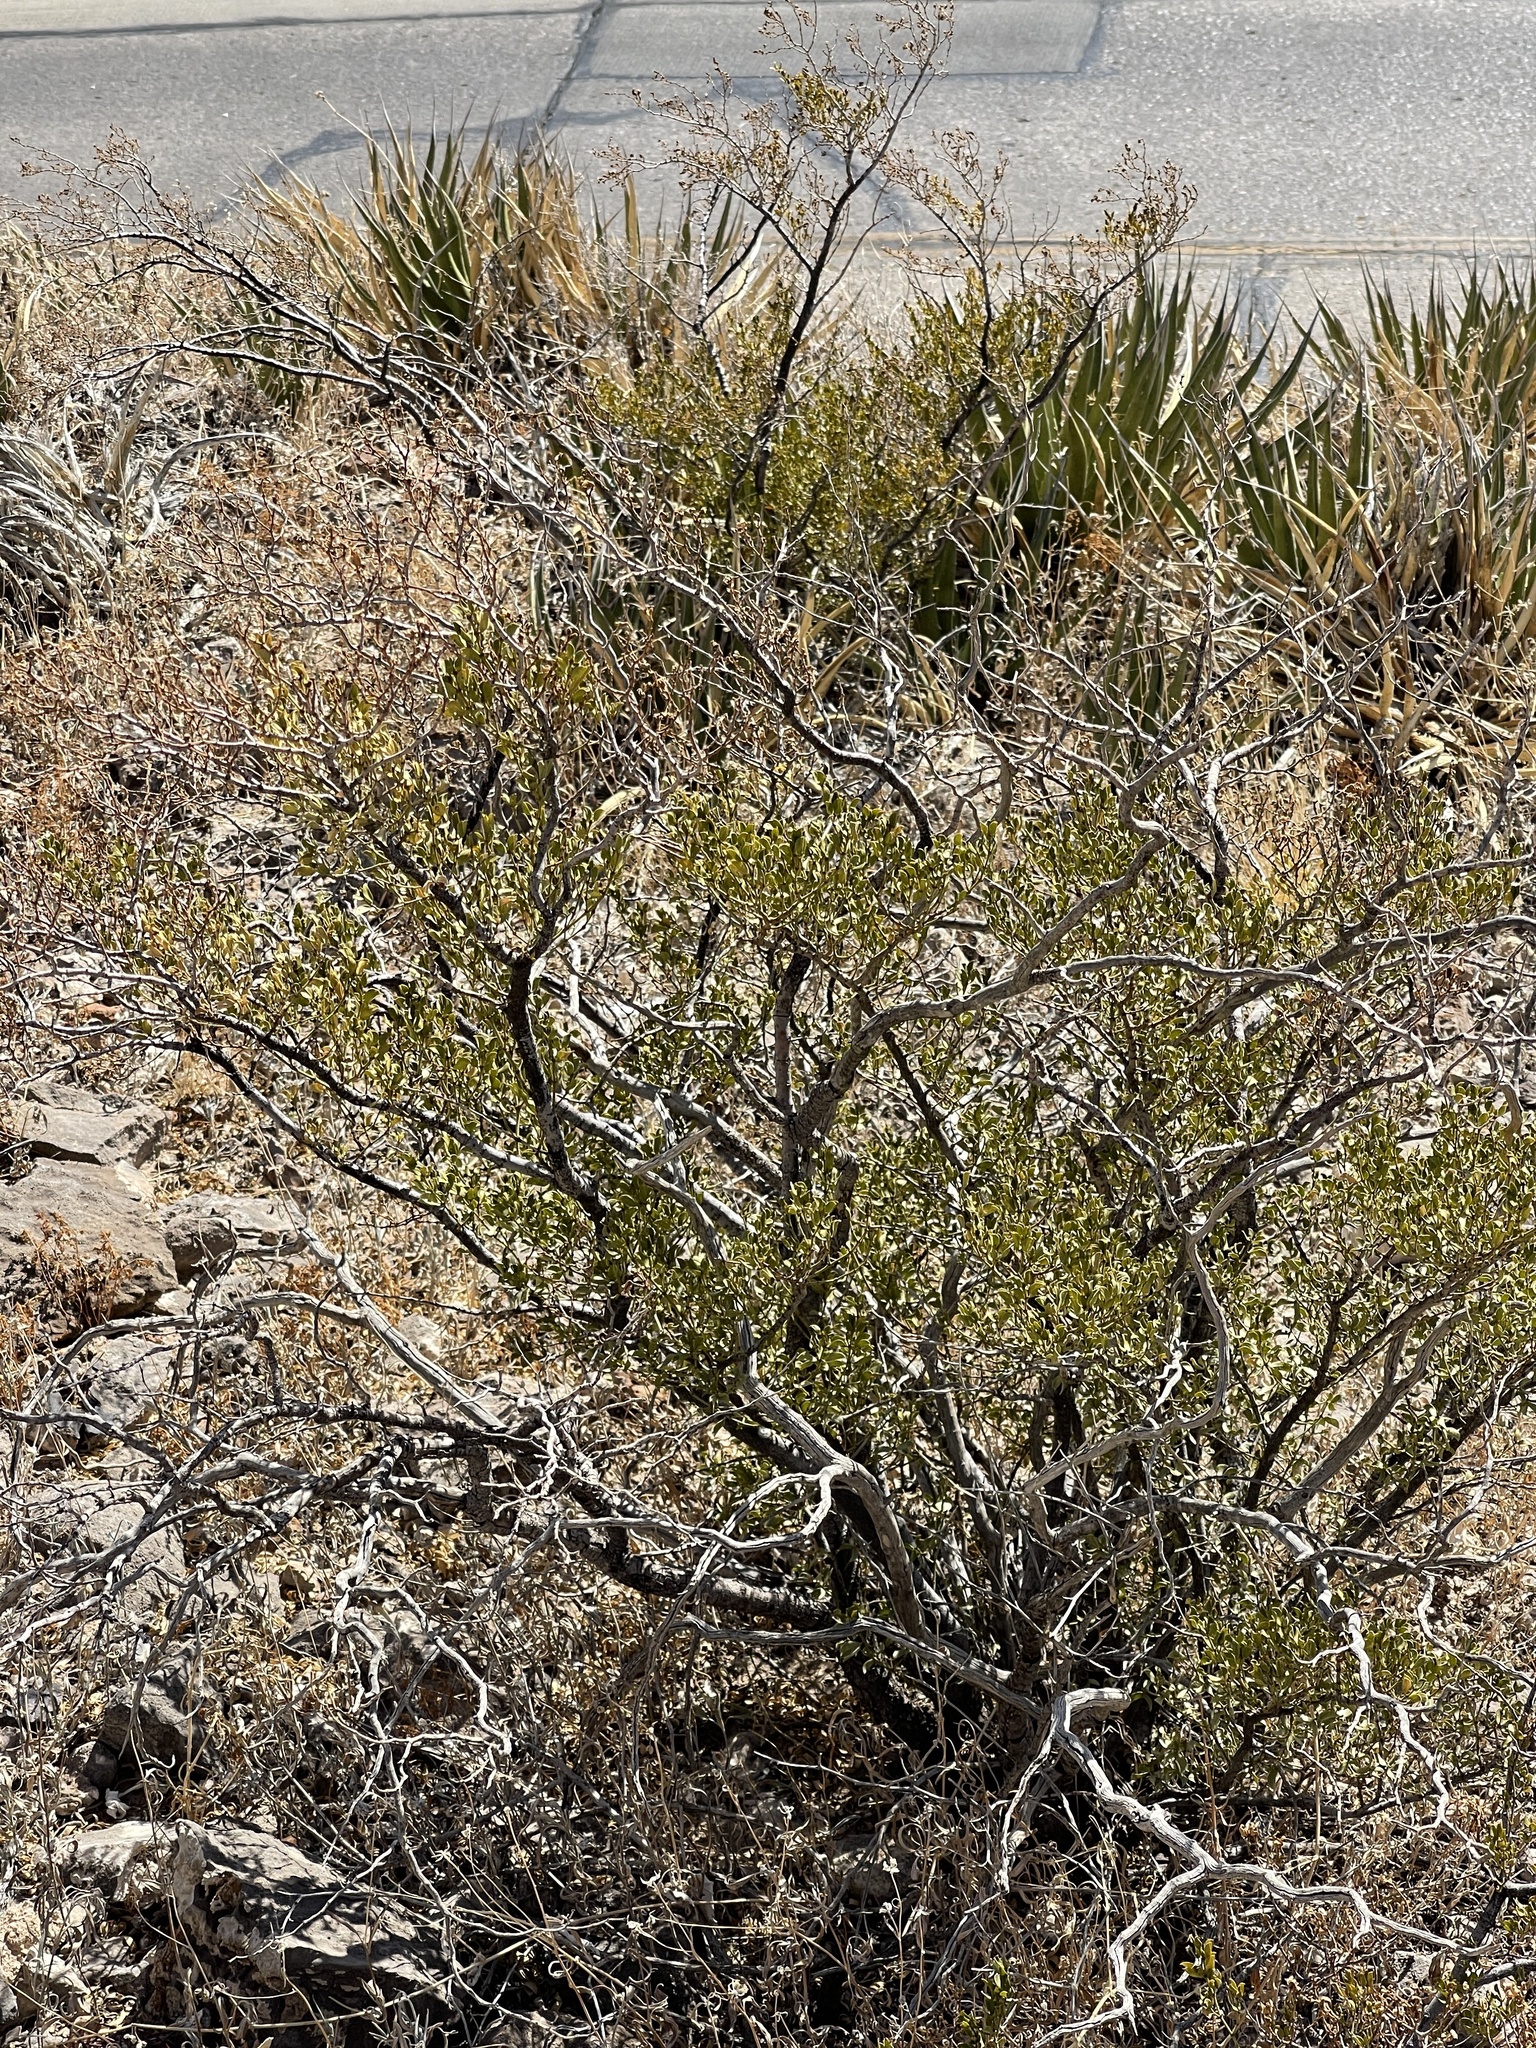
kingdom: Plantae
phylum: Tracheophyta
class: Magnoliopsida
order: Zygophyllales
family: Zygophyllaceae
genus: Larrea
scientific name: Larrea tridentata
